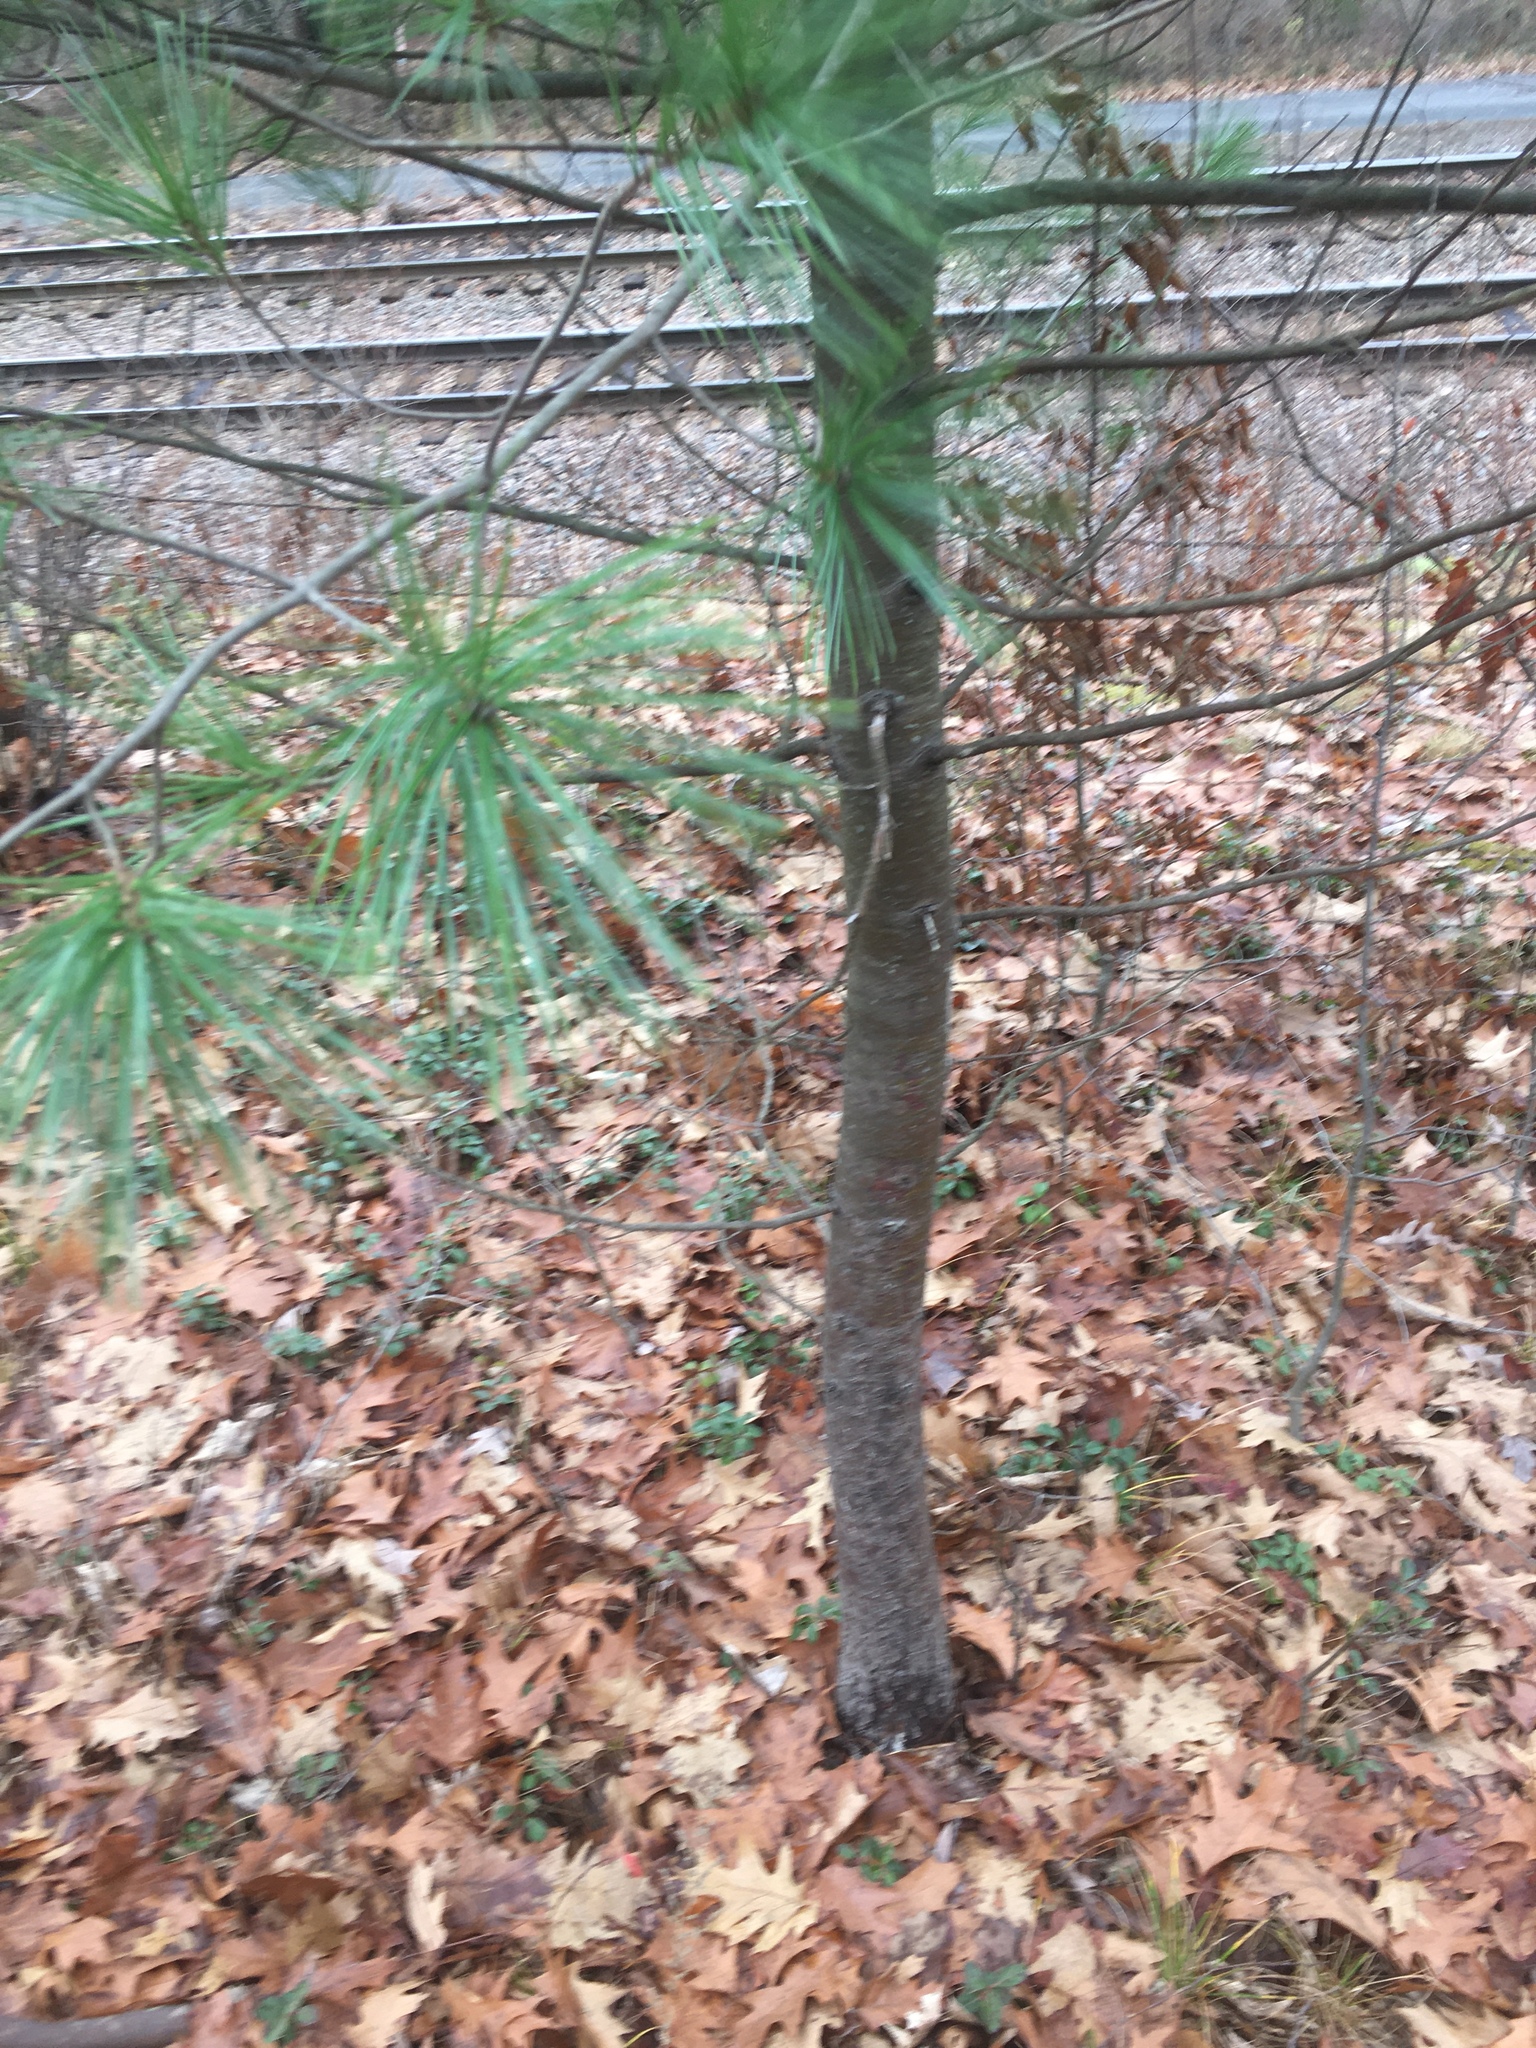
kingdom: Plantae
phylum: Tracheophyta
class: Pinopsida
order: Pinales
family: Pinaceae
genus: Pinus
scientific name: Pinus strobus
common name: Weymouth pine
